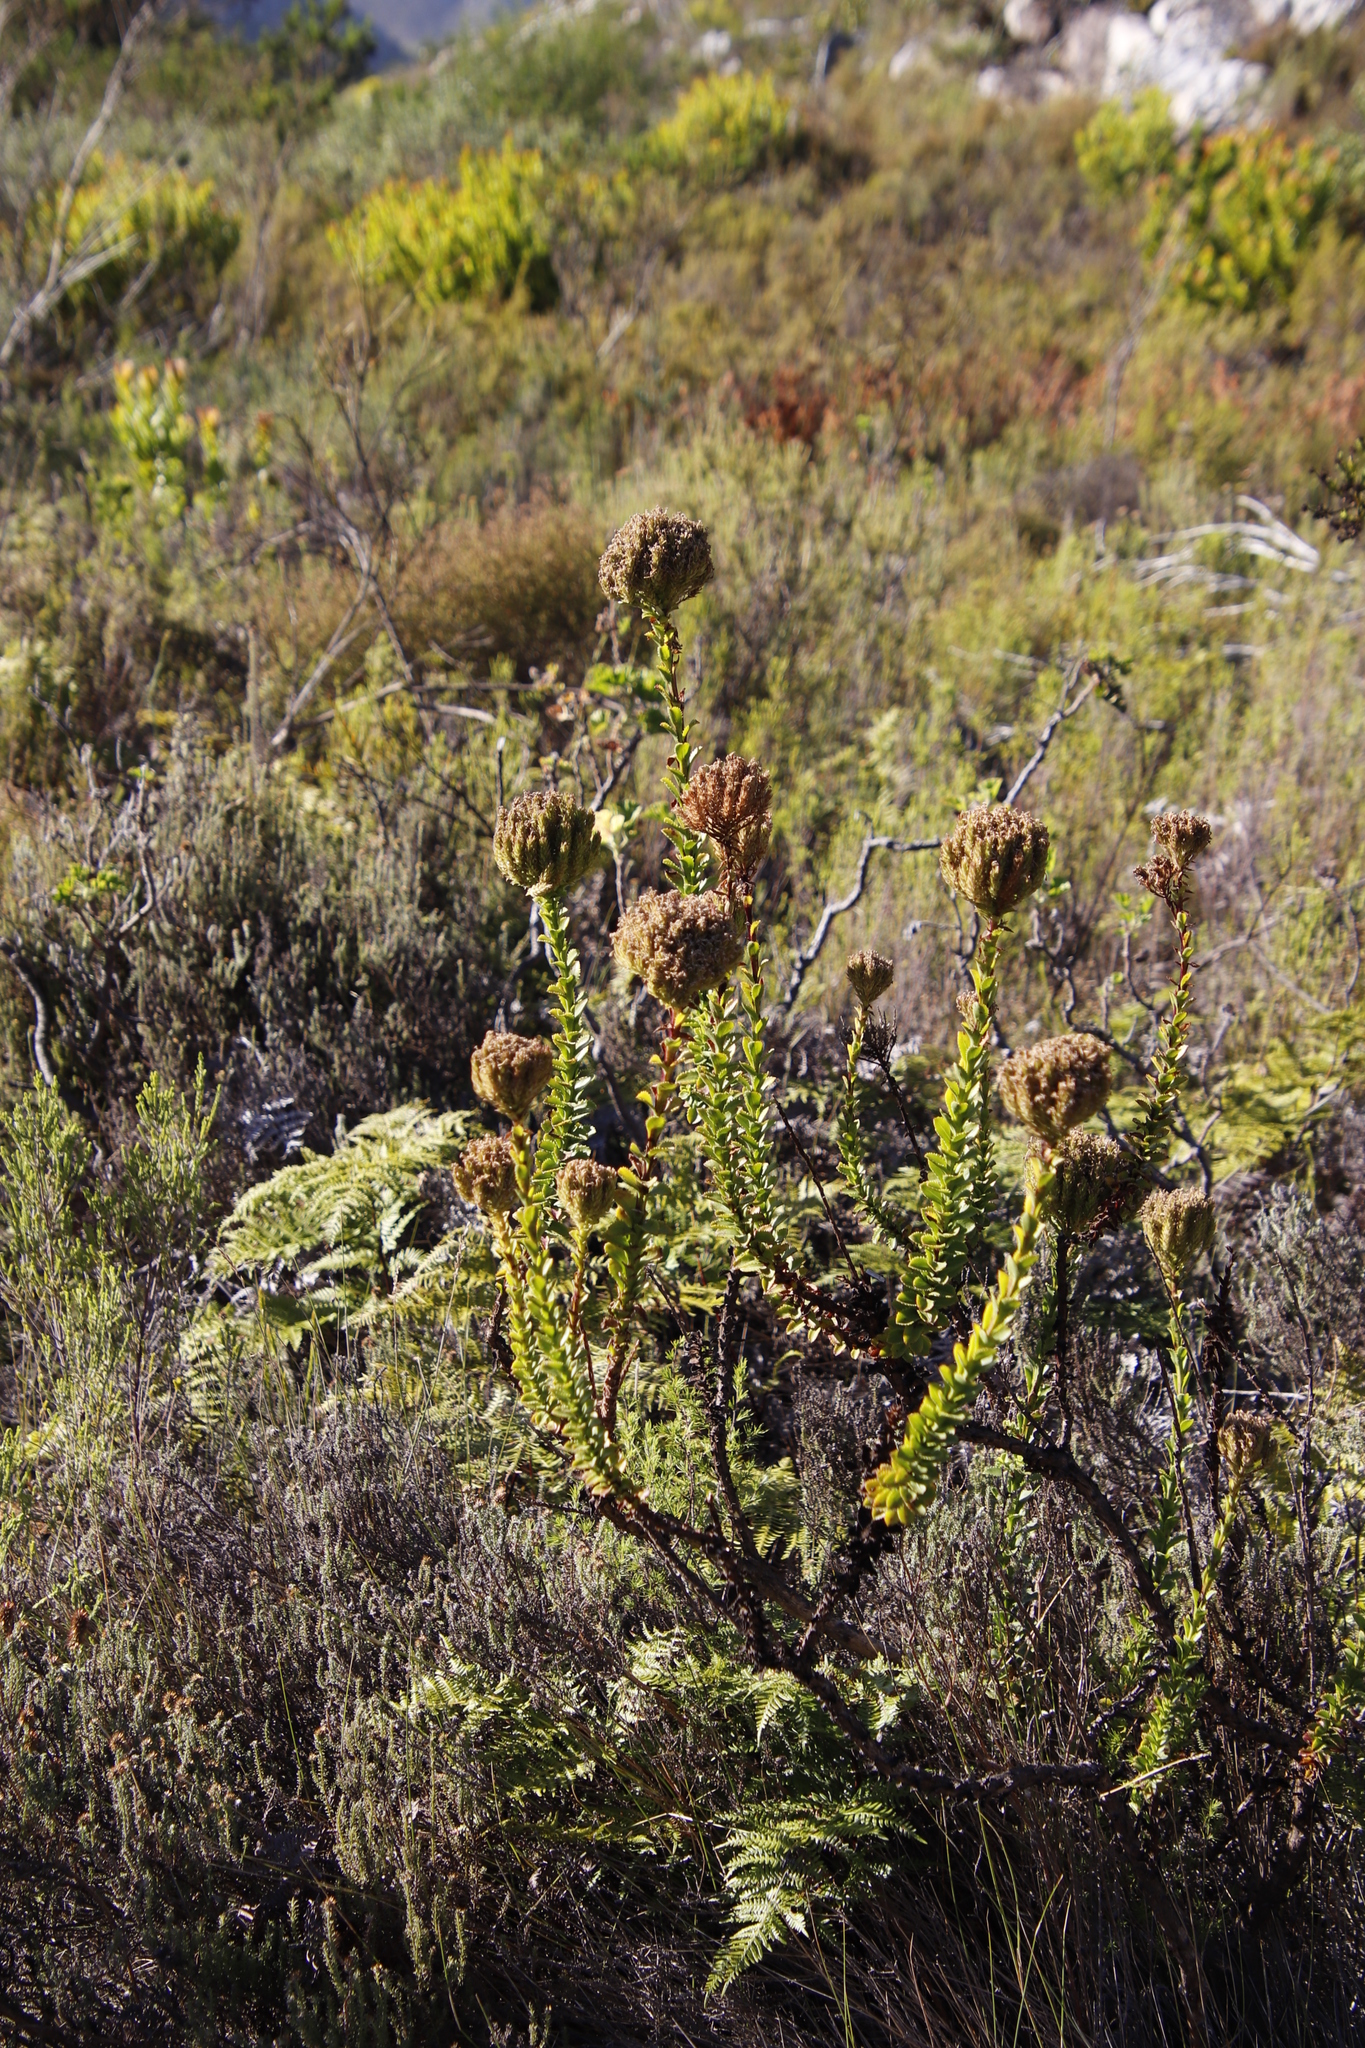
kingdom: Plantae
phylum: Tracheophyta
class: Magnoliopsida
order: Lamiales
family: Scrophulariaceae
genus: Pseudoselago
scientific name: Pseudoselago serrata
